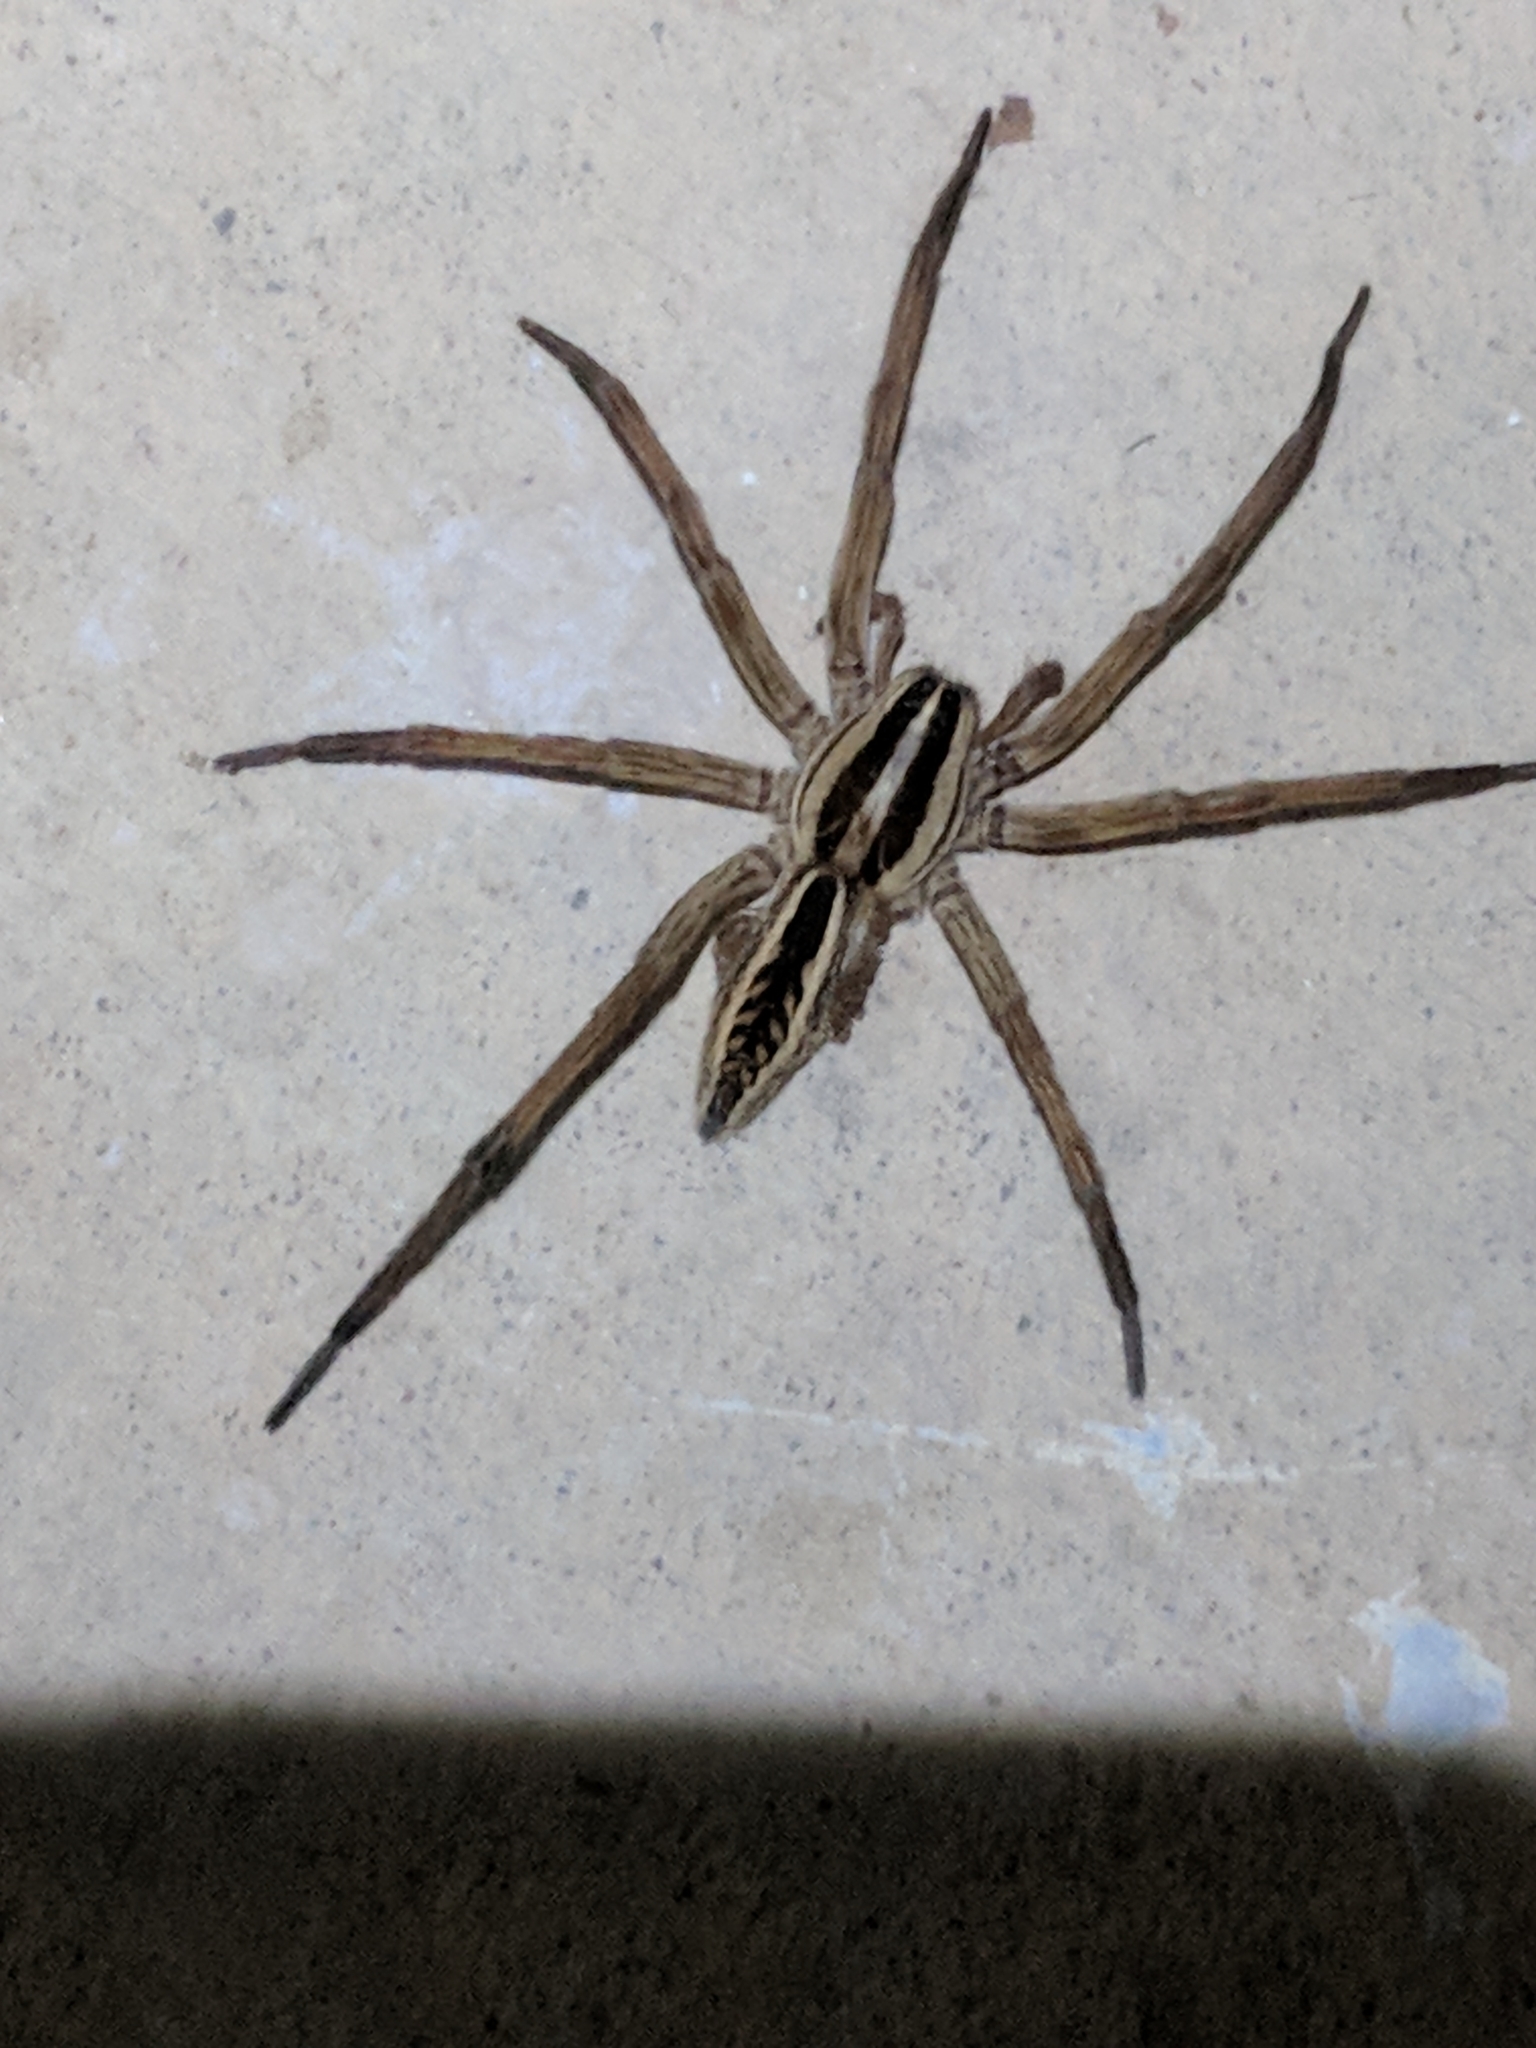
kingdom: Animalia
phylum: Arthropoda
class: Arachnida
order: Araneae
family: Lycosidae
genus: Rabidosa
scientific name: Rabidosa rabida
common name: Rabid wolf spider
